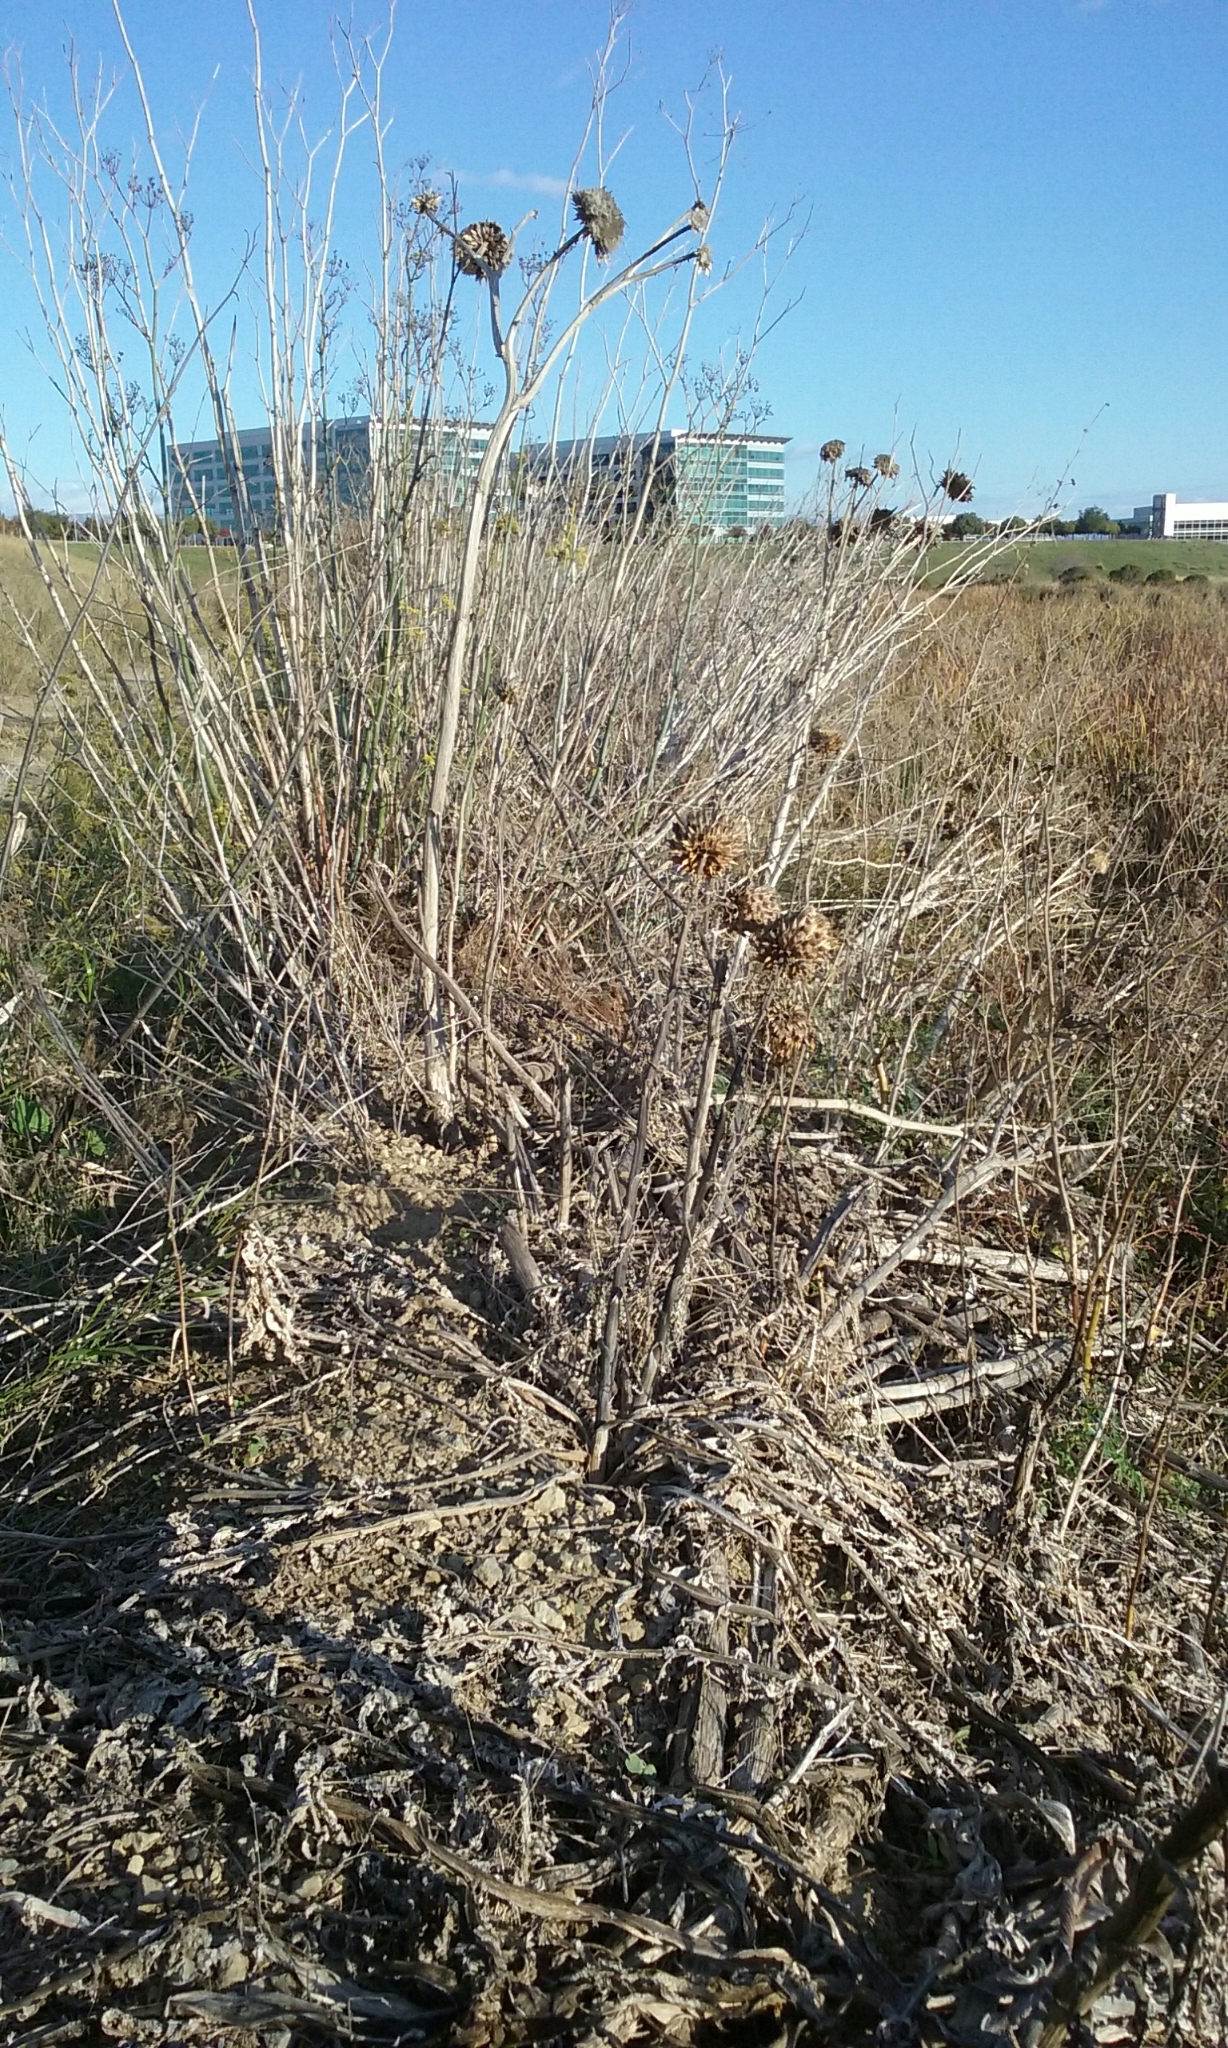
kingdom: Plantae
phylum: Tracheophyta
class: Magnoliopsida
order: Asterales
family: Asteraceae
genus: Cynara
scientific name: Cynara cardunculus
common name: Globe artichoke
